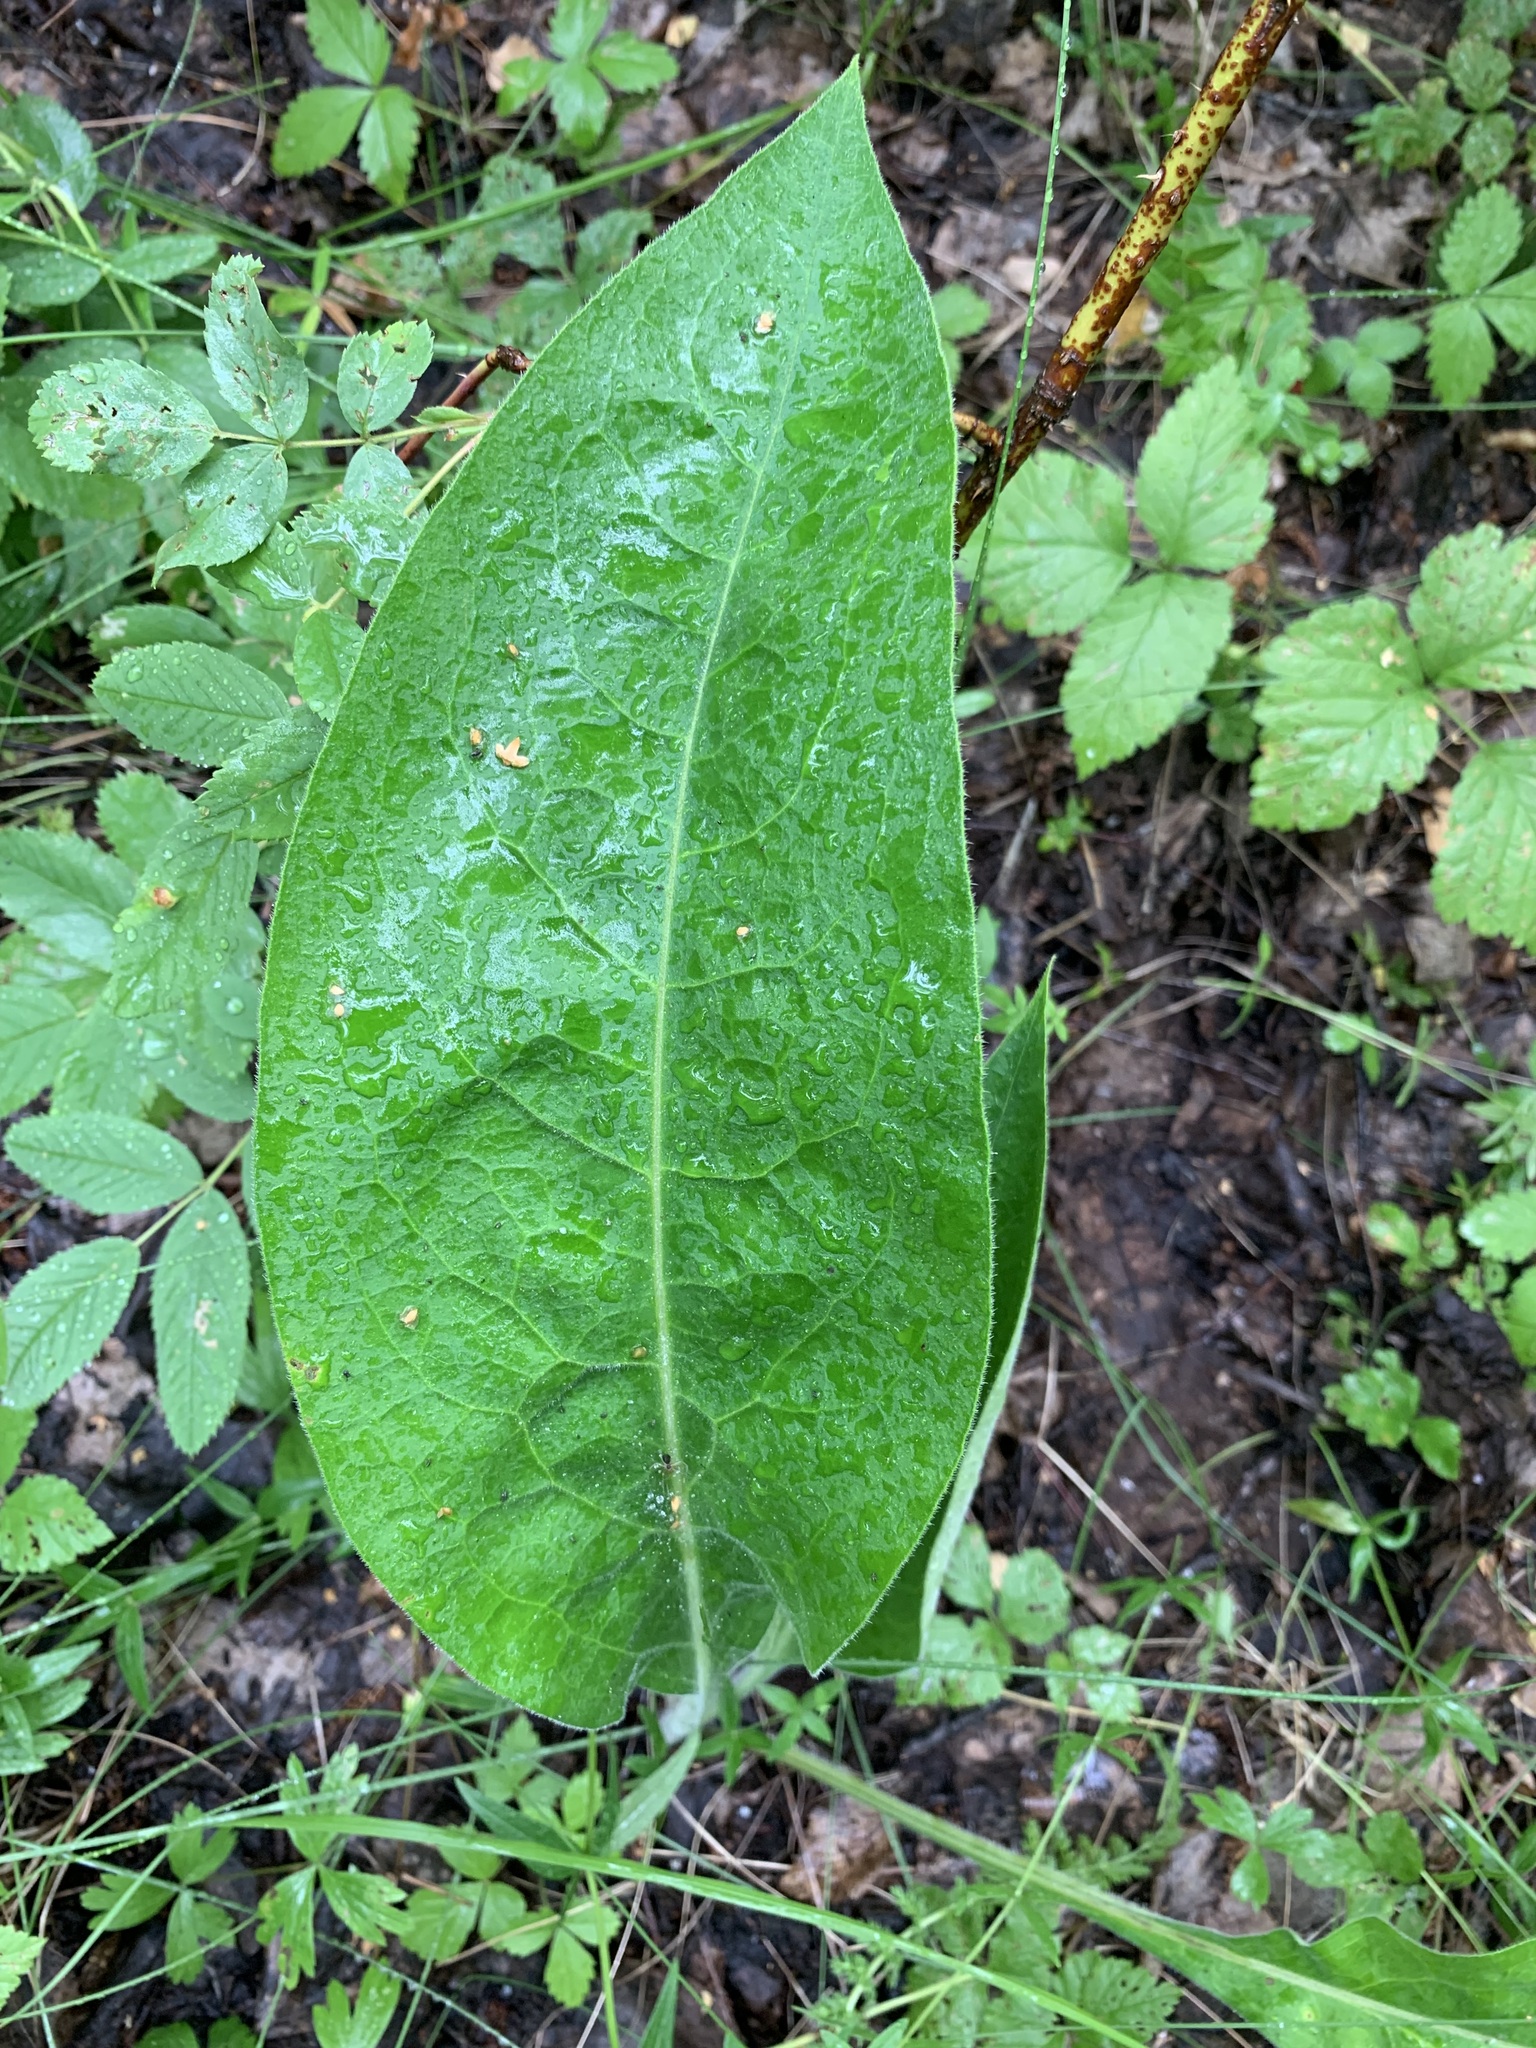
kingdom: Plantae
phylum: Tracheophyta
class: Magnoliopsida
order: Boraginales
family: Boraginaceae
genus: Pulmonaria
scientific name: Pulmonaria mollis
